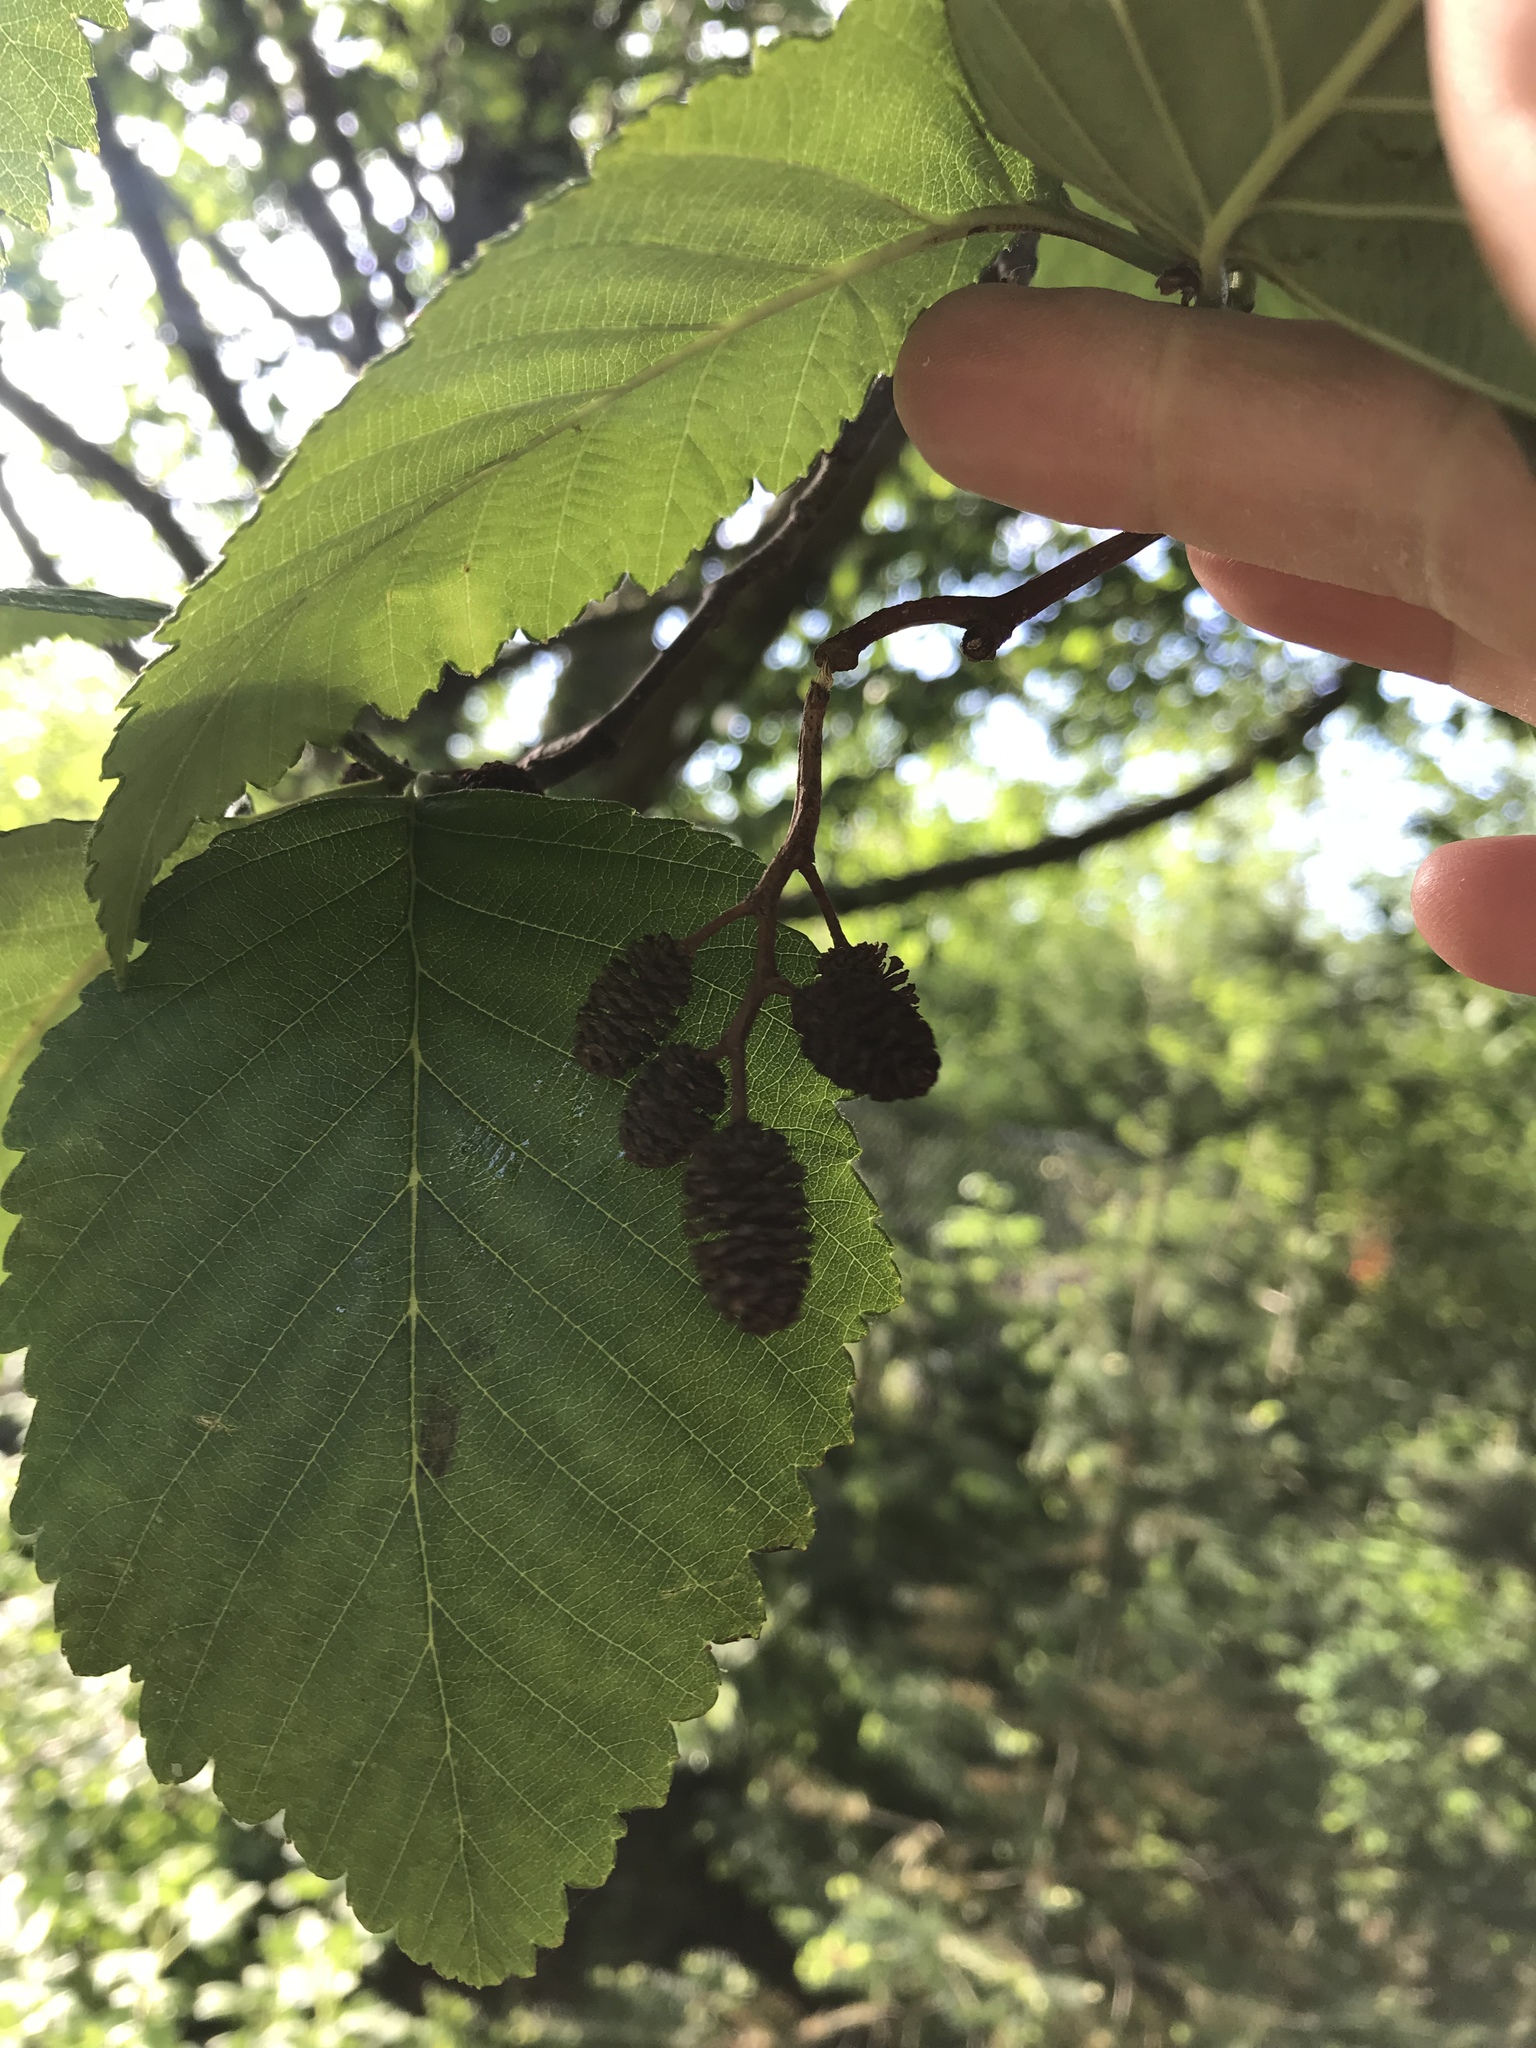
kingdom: Plantae
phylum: Tracheophyta
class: Magnoliopsida
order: Fagales
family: Betulaceae
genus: Alnus
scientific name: Alnus rubra
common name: Red alder
